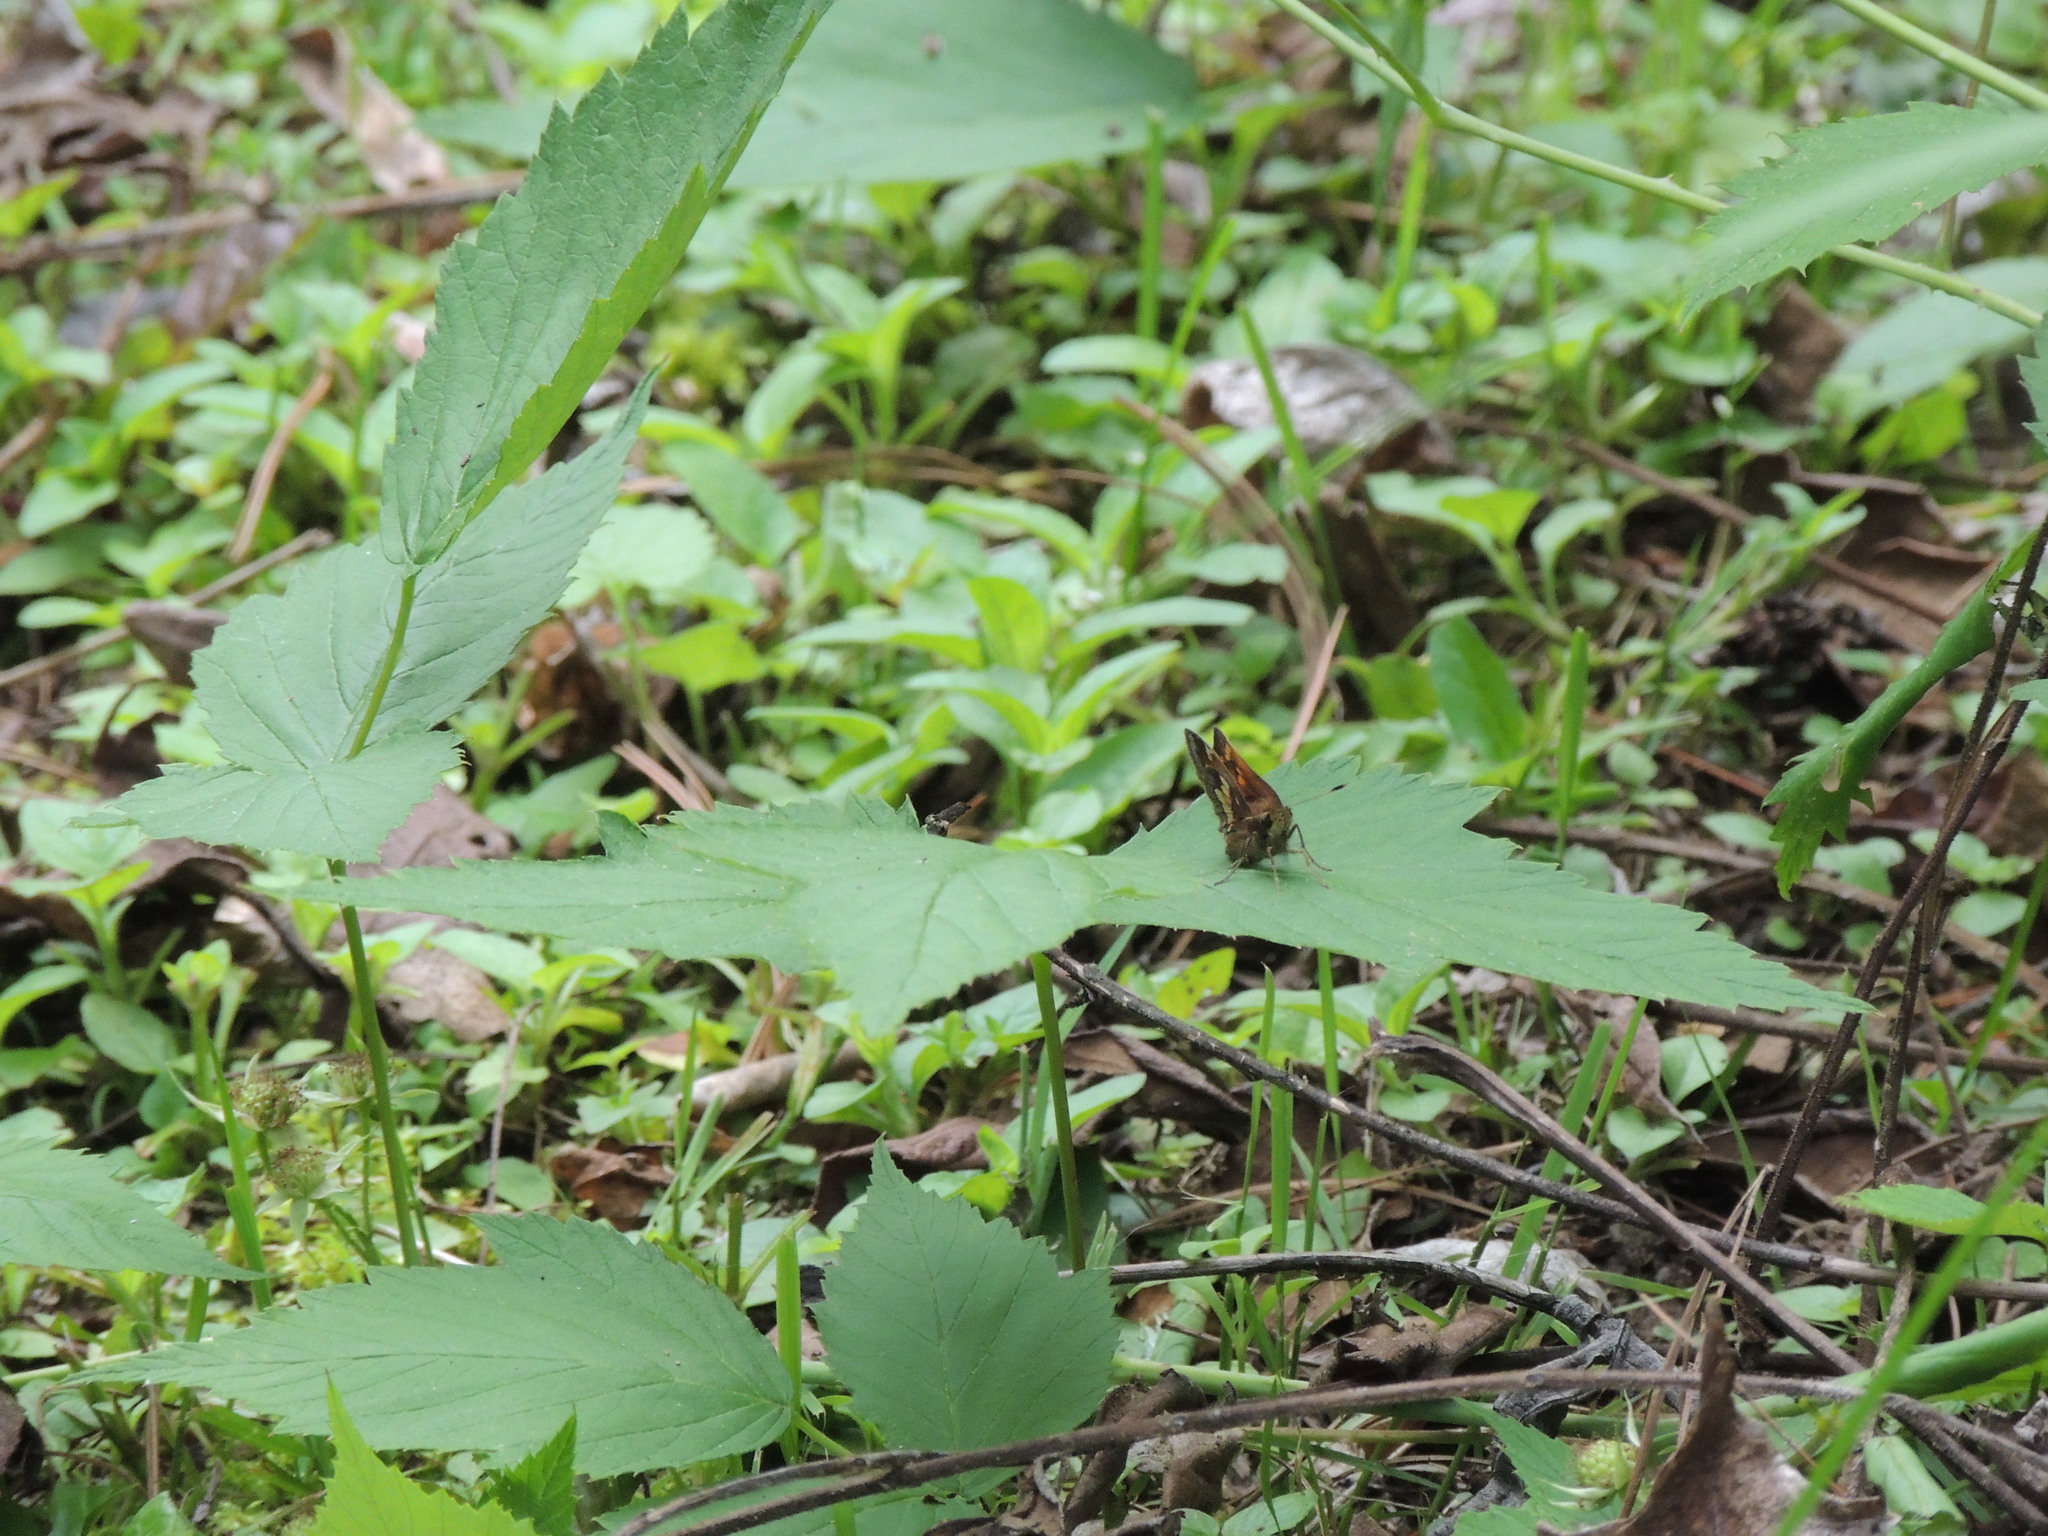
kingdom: Animalia
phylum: Arthropoda
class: Insecta
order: Lepidoptera
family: Hesperiidae
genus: Lon
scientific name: Lon hobomok
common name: Hobomok skipper
